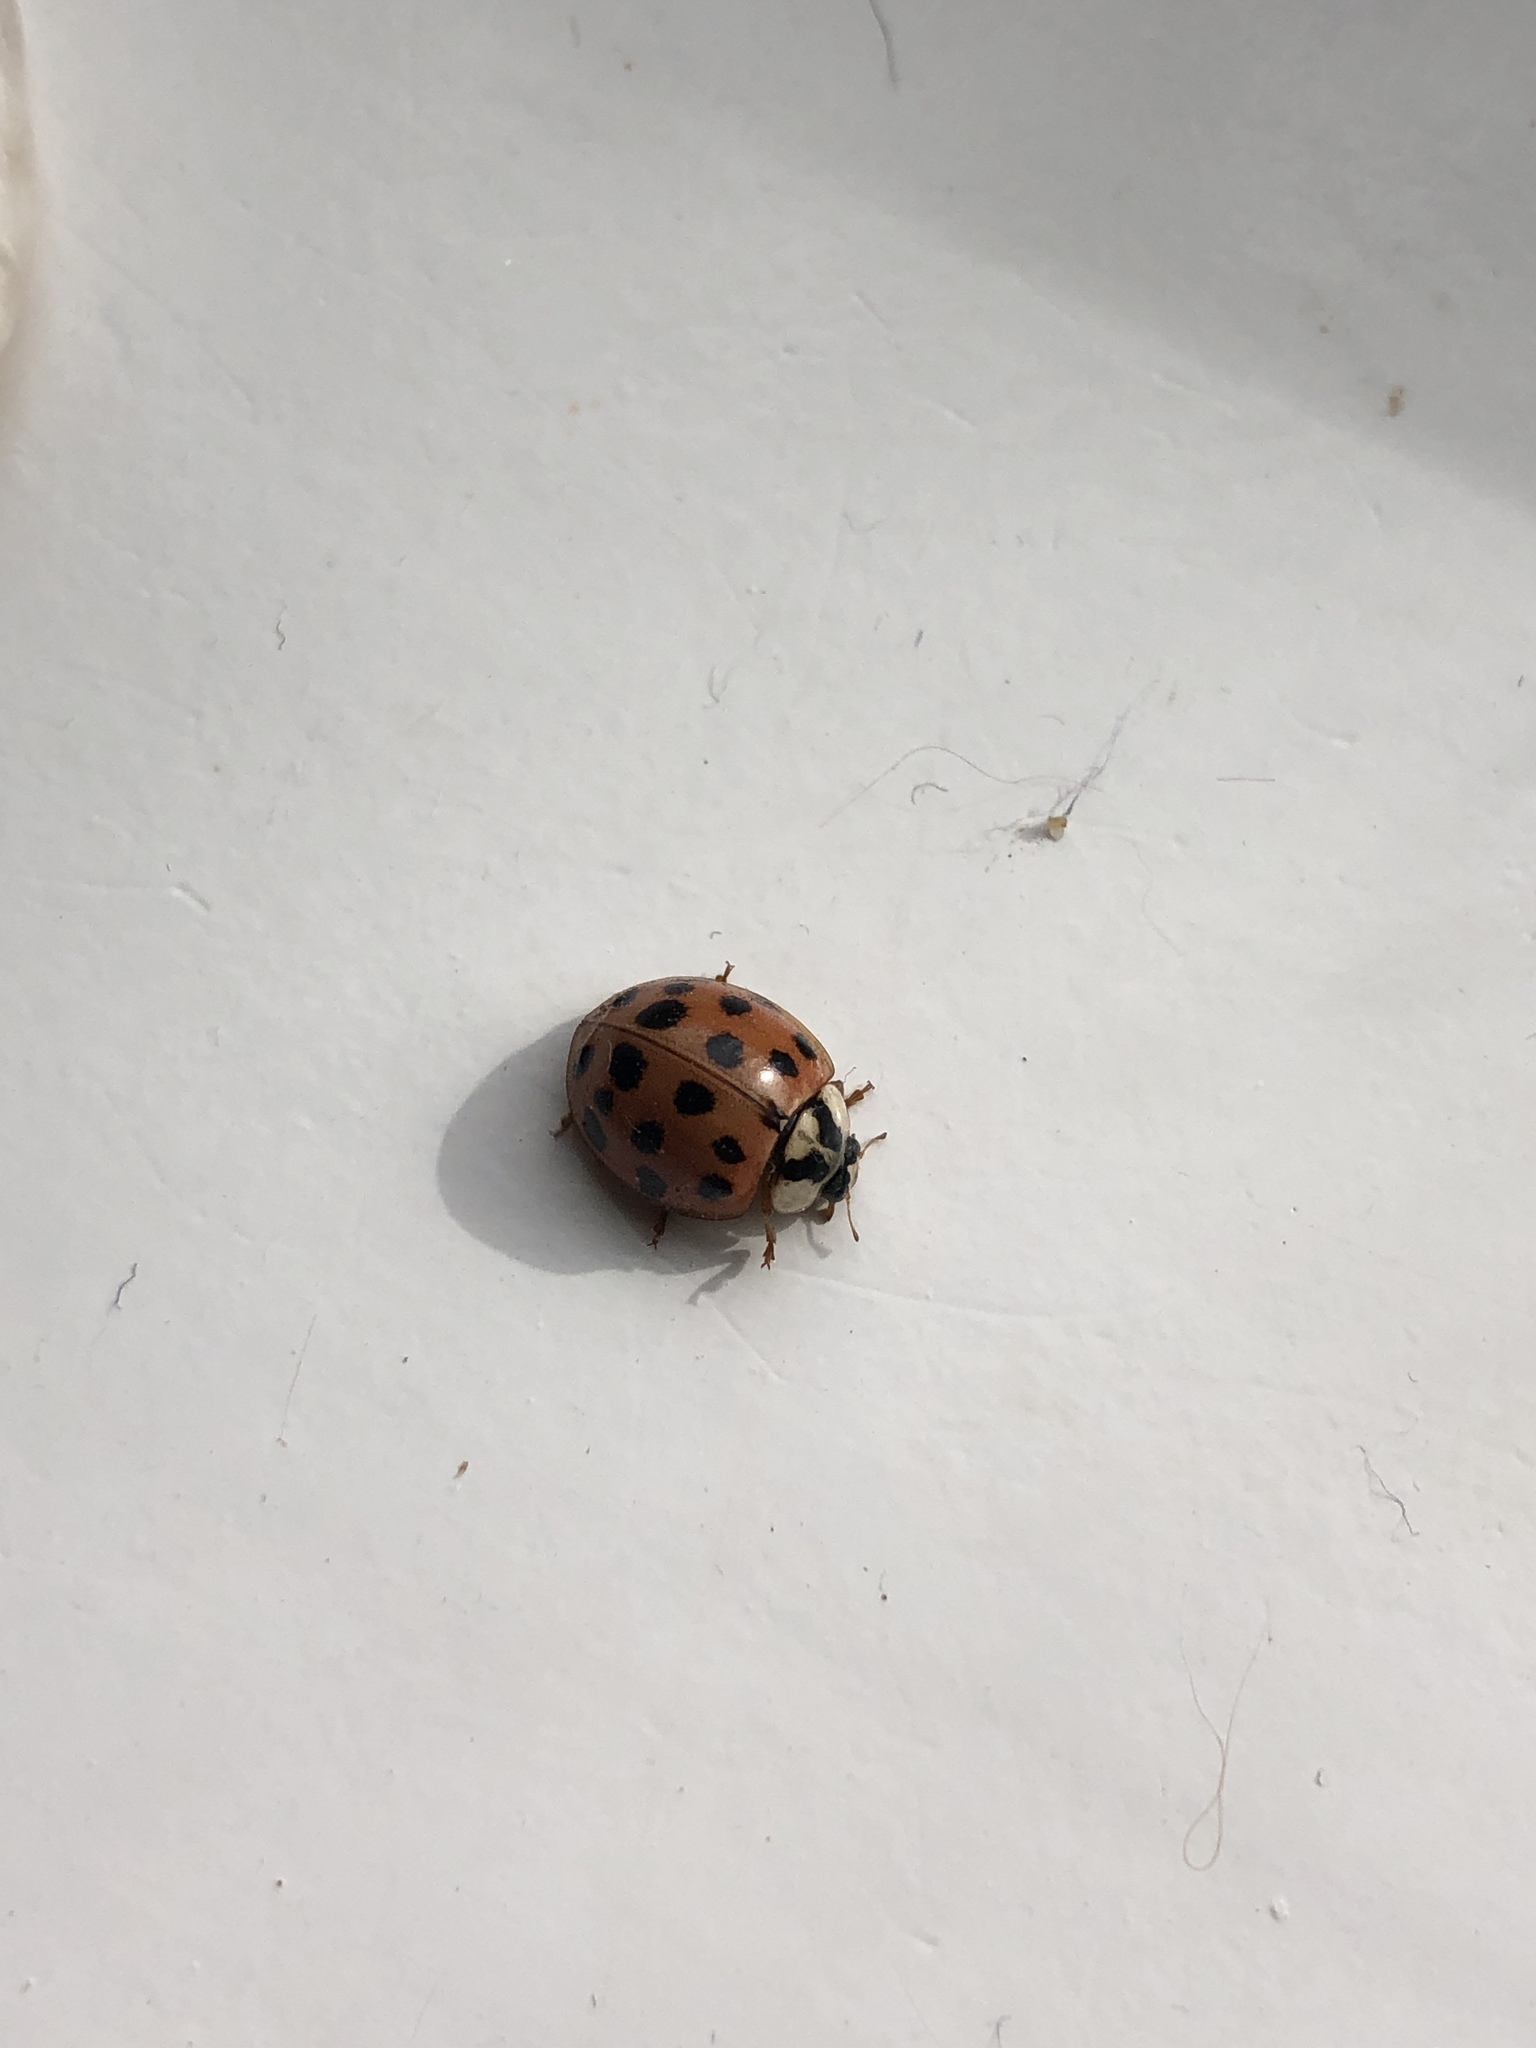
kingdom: Animalia
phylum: Arthropoda
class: Insecta
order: Coleoptera
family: Coccinellidae
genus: Harmonia
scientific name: Harmonia axyridis
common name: Harlequin ladybird
